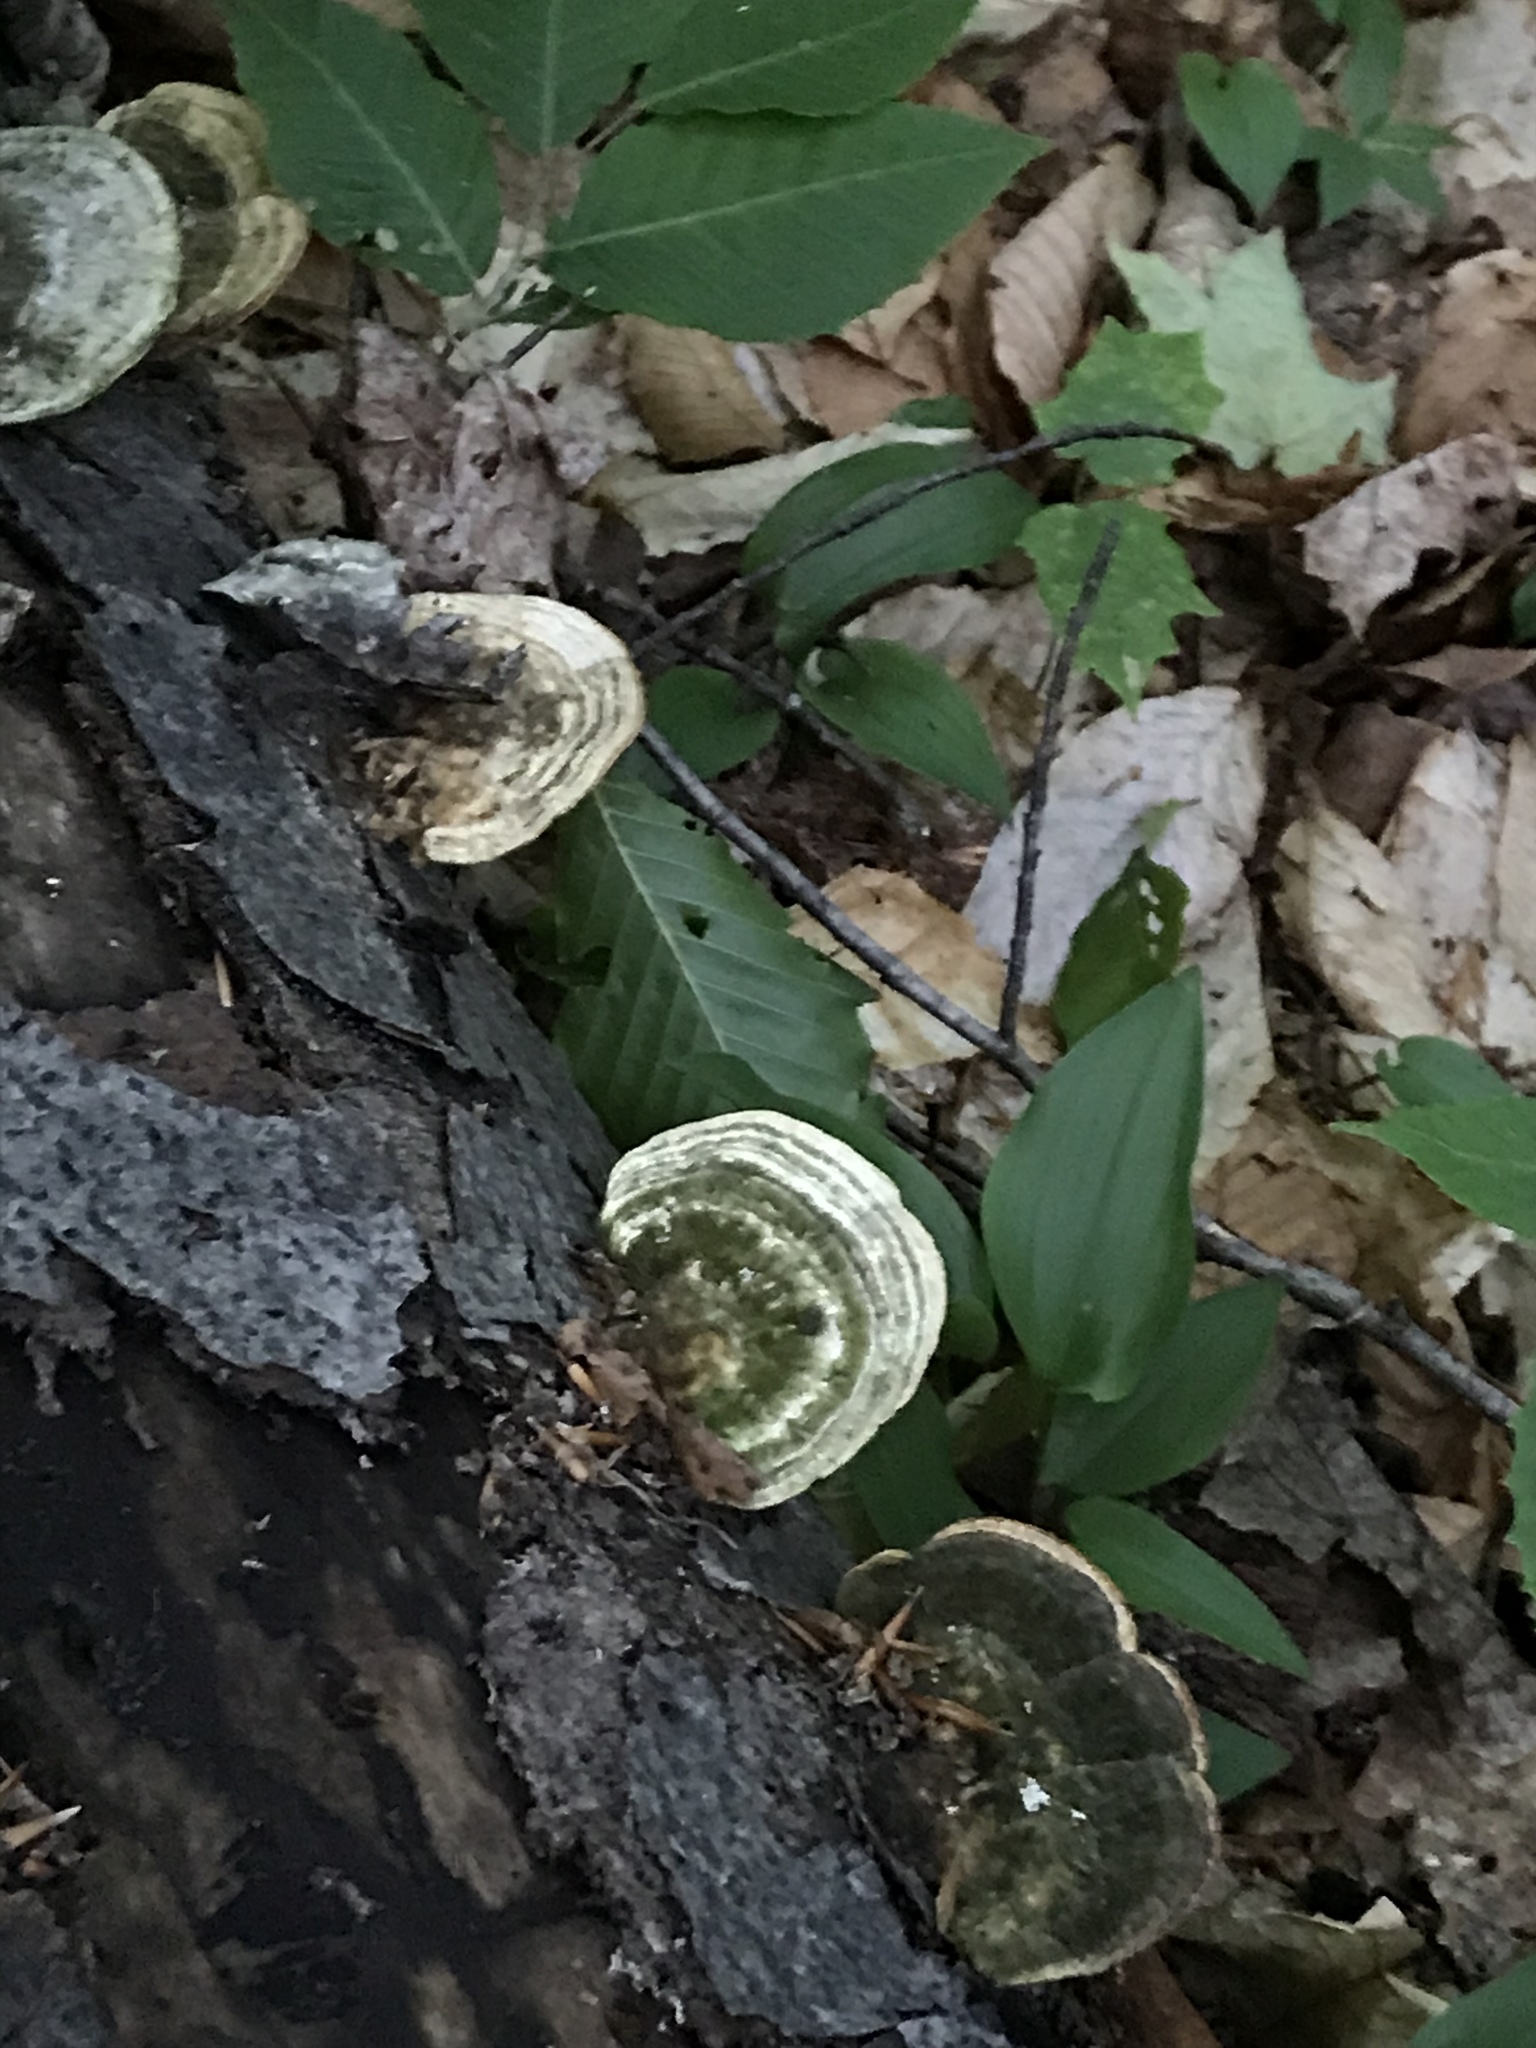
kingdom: Fungi
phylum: Basidiomycota
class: Agaricomycetes
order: Polyporales
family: Polyporaceae
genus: Trametes
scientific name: Trametes versicolor
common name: Turkeytail
